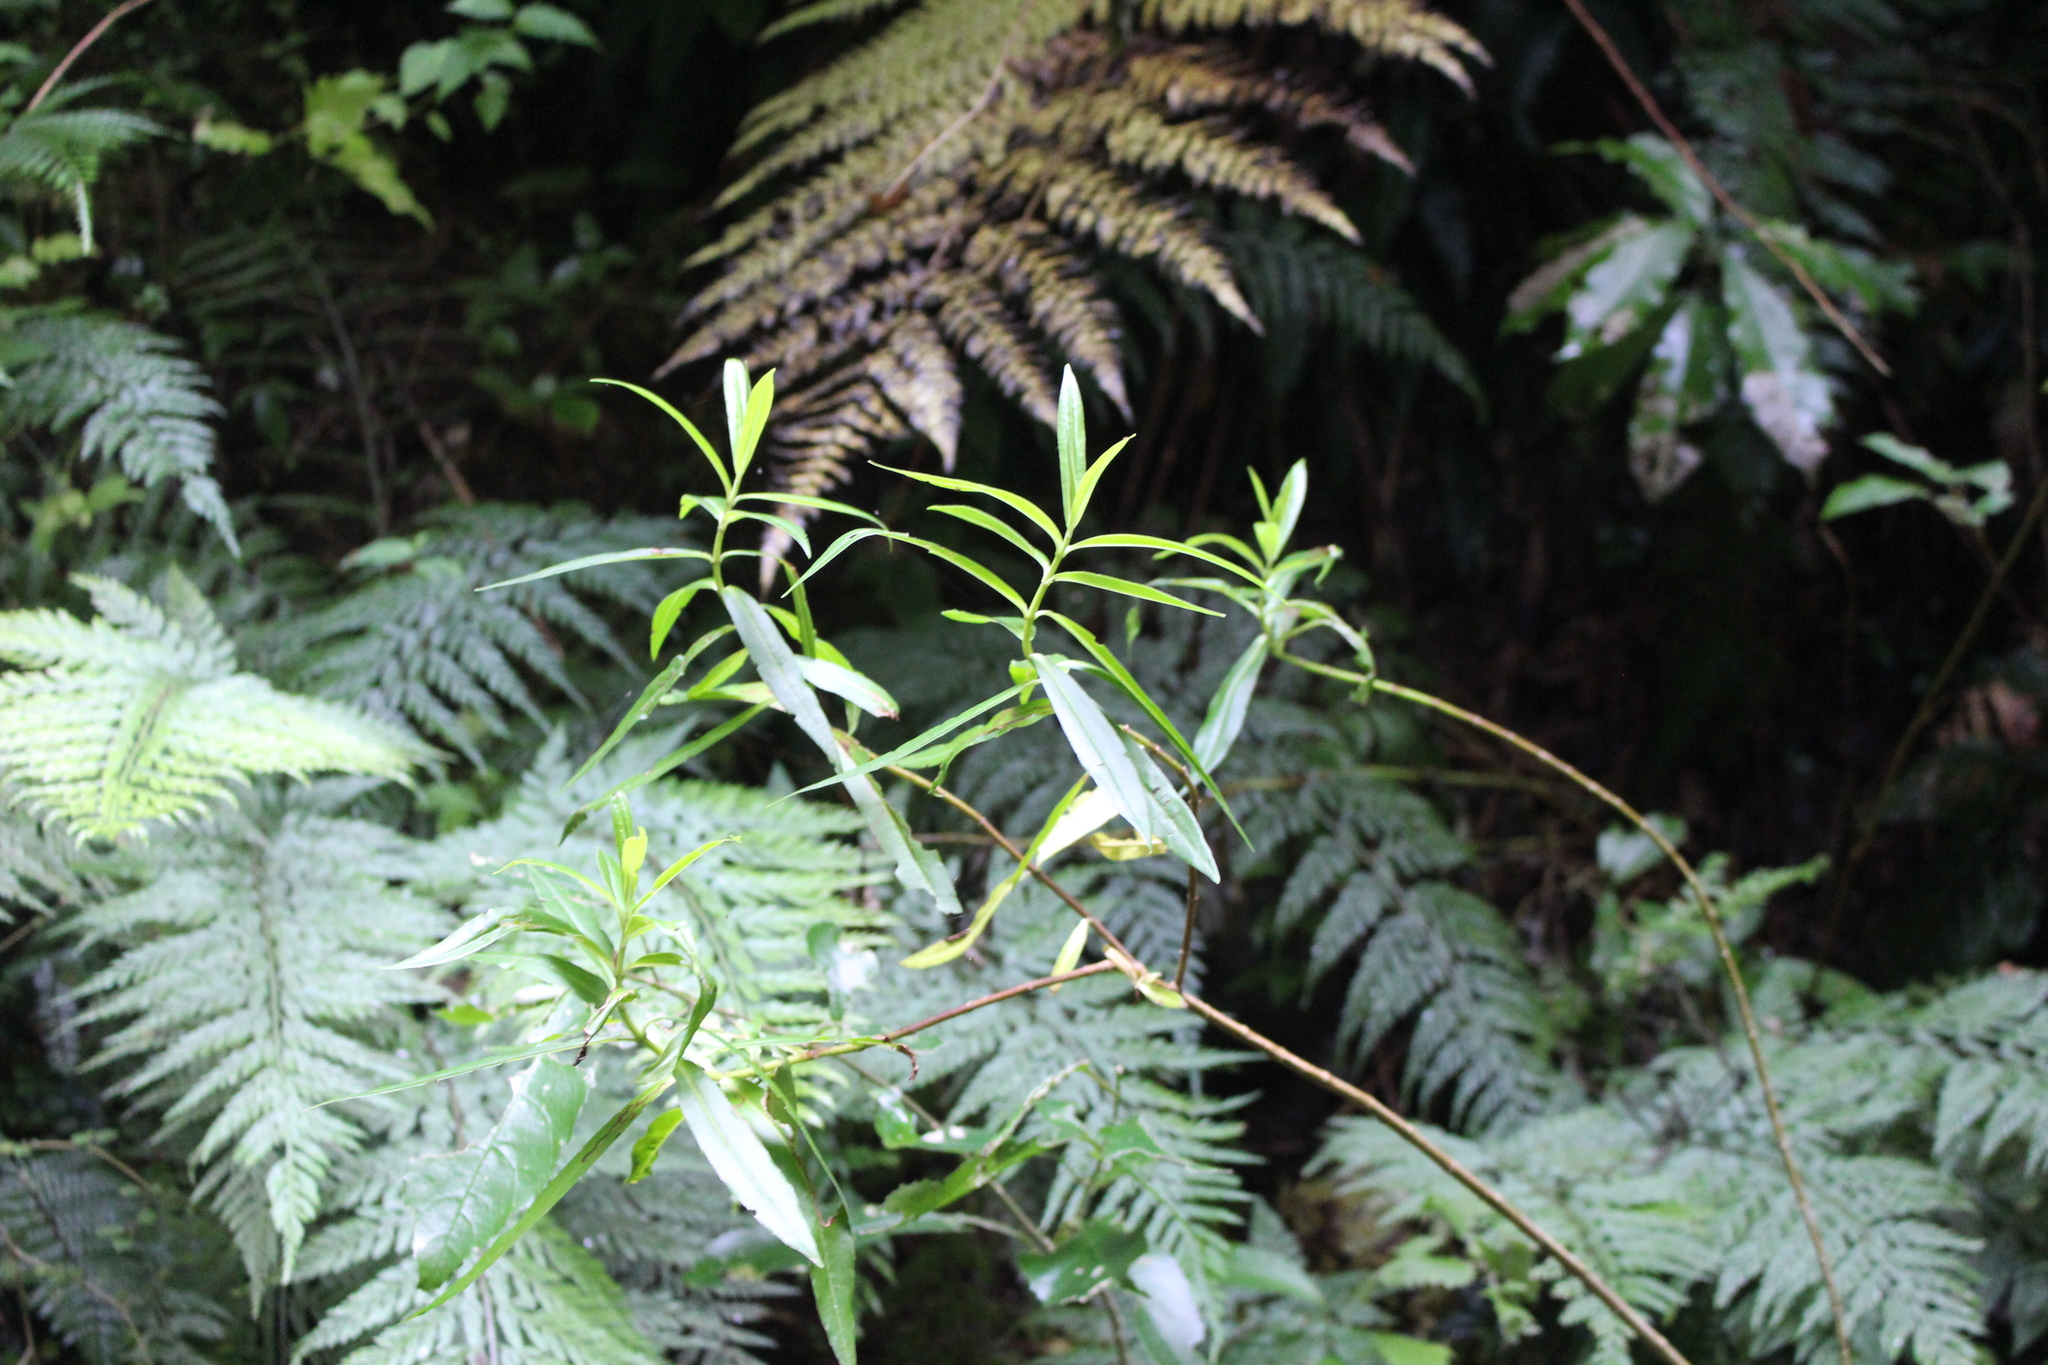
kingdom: Plantae
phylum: Tracheophyta
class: Magnoliopsida
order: Lamiales
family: Plantaginaceae
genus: Veronica
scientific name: Veronica salicifolia
